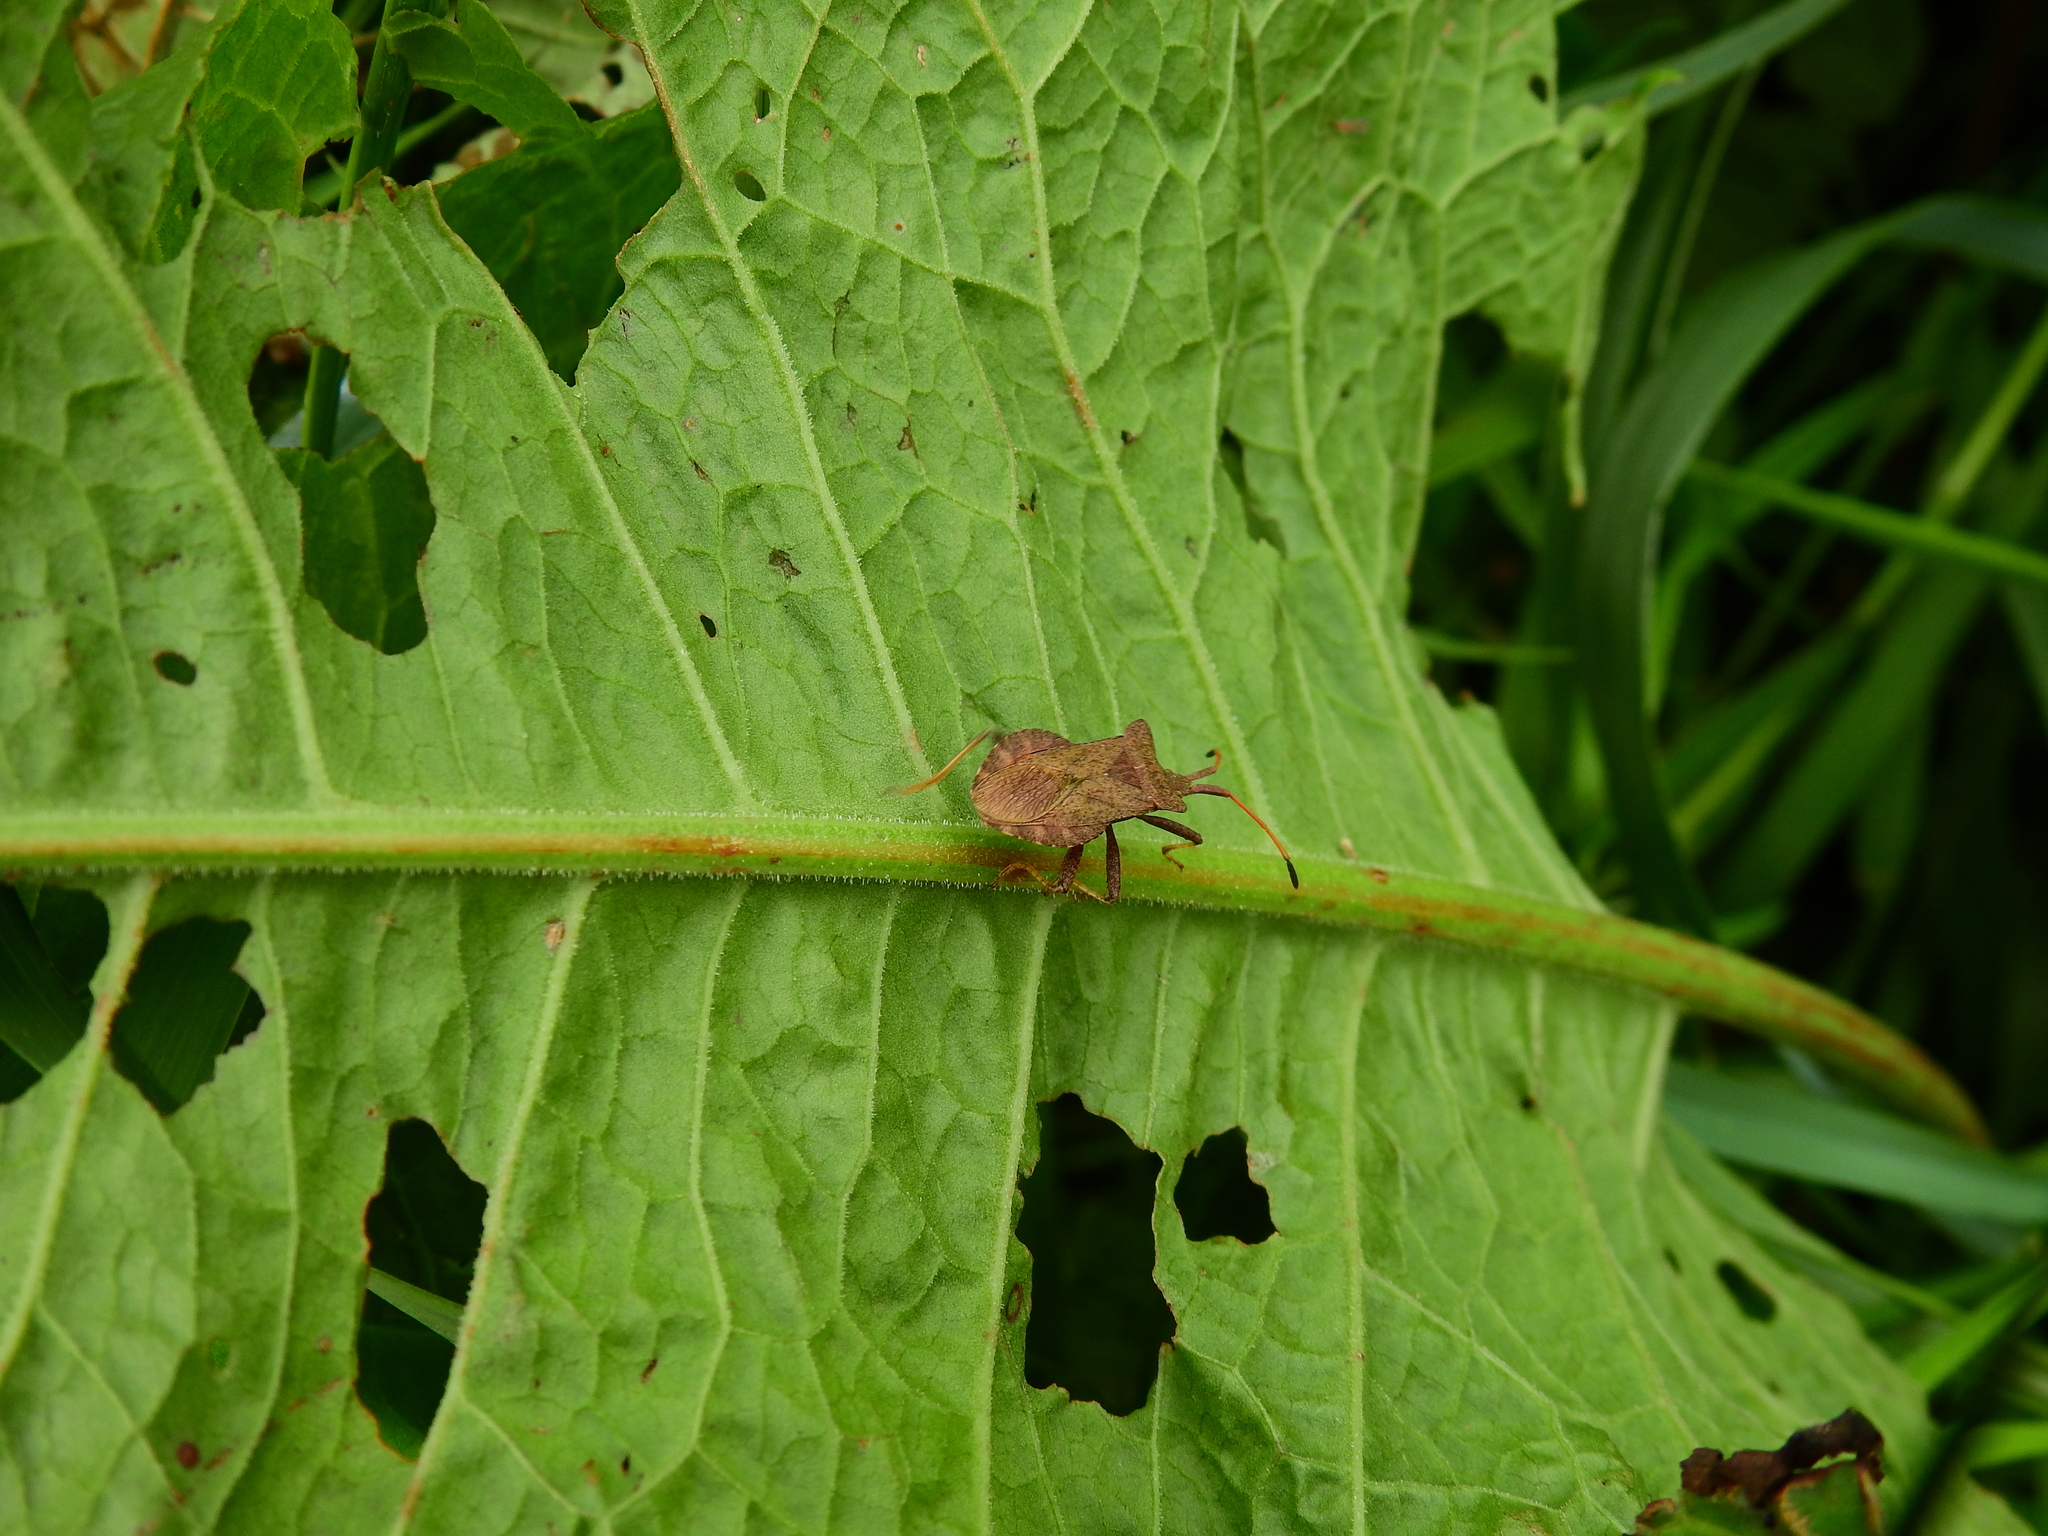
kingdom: Animalia
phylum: Arthropoda
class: Insecta
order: Hemiptera
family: Coreidae
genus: Coreus
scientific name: Coreus marginatus
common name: Dock bug
